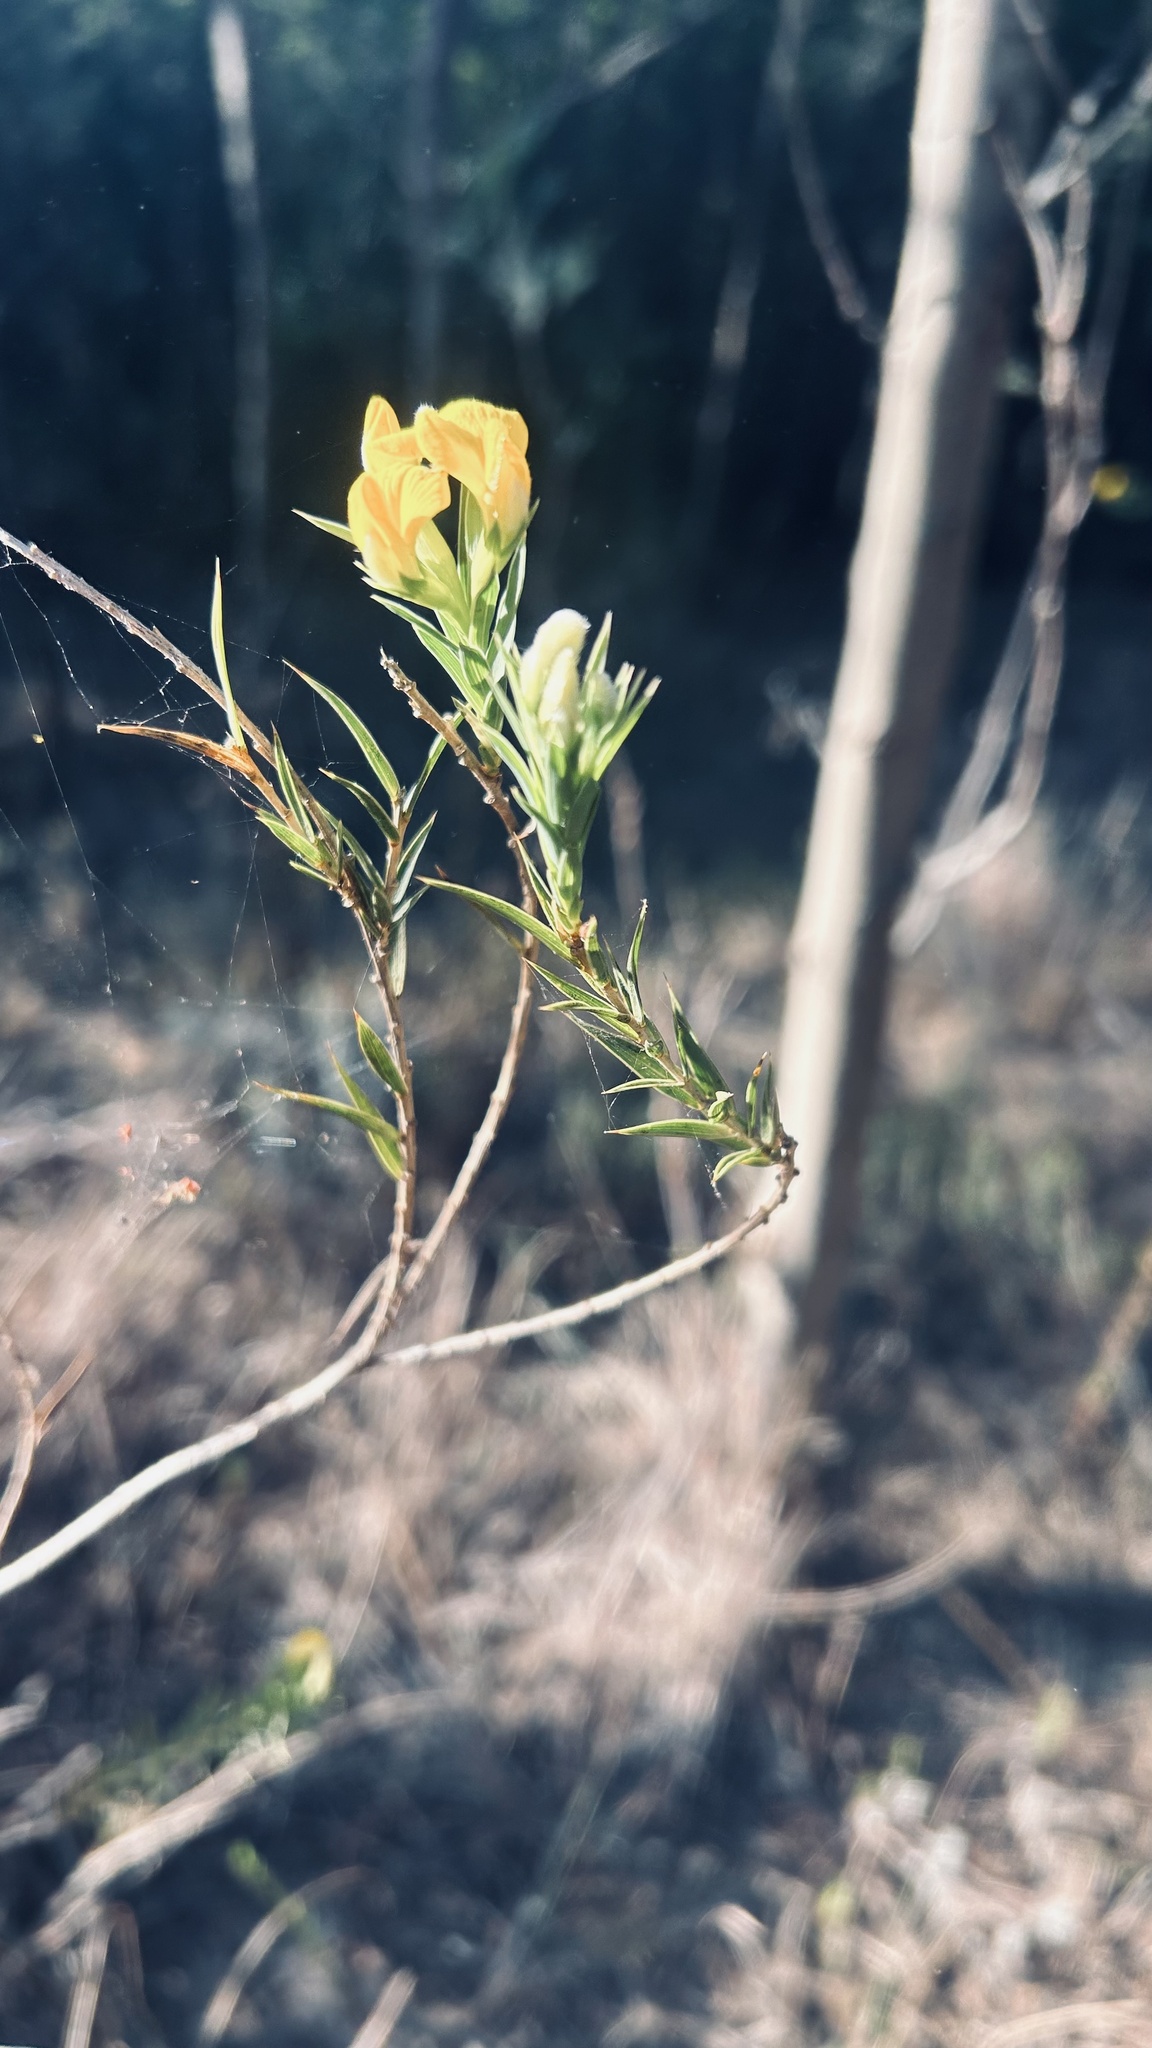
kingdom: Plantae
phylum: Tracheophyta
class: Magnoliopsida
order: Fabales
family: Fabaceae
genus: Aspalathus
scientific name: Aspalathus angustifolia
